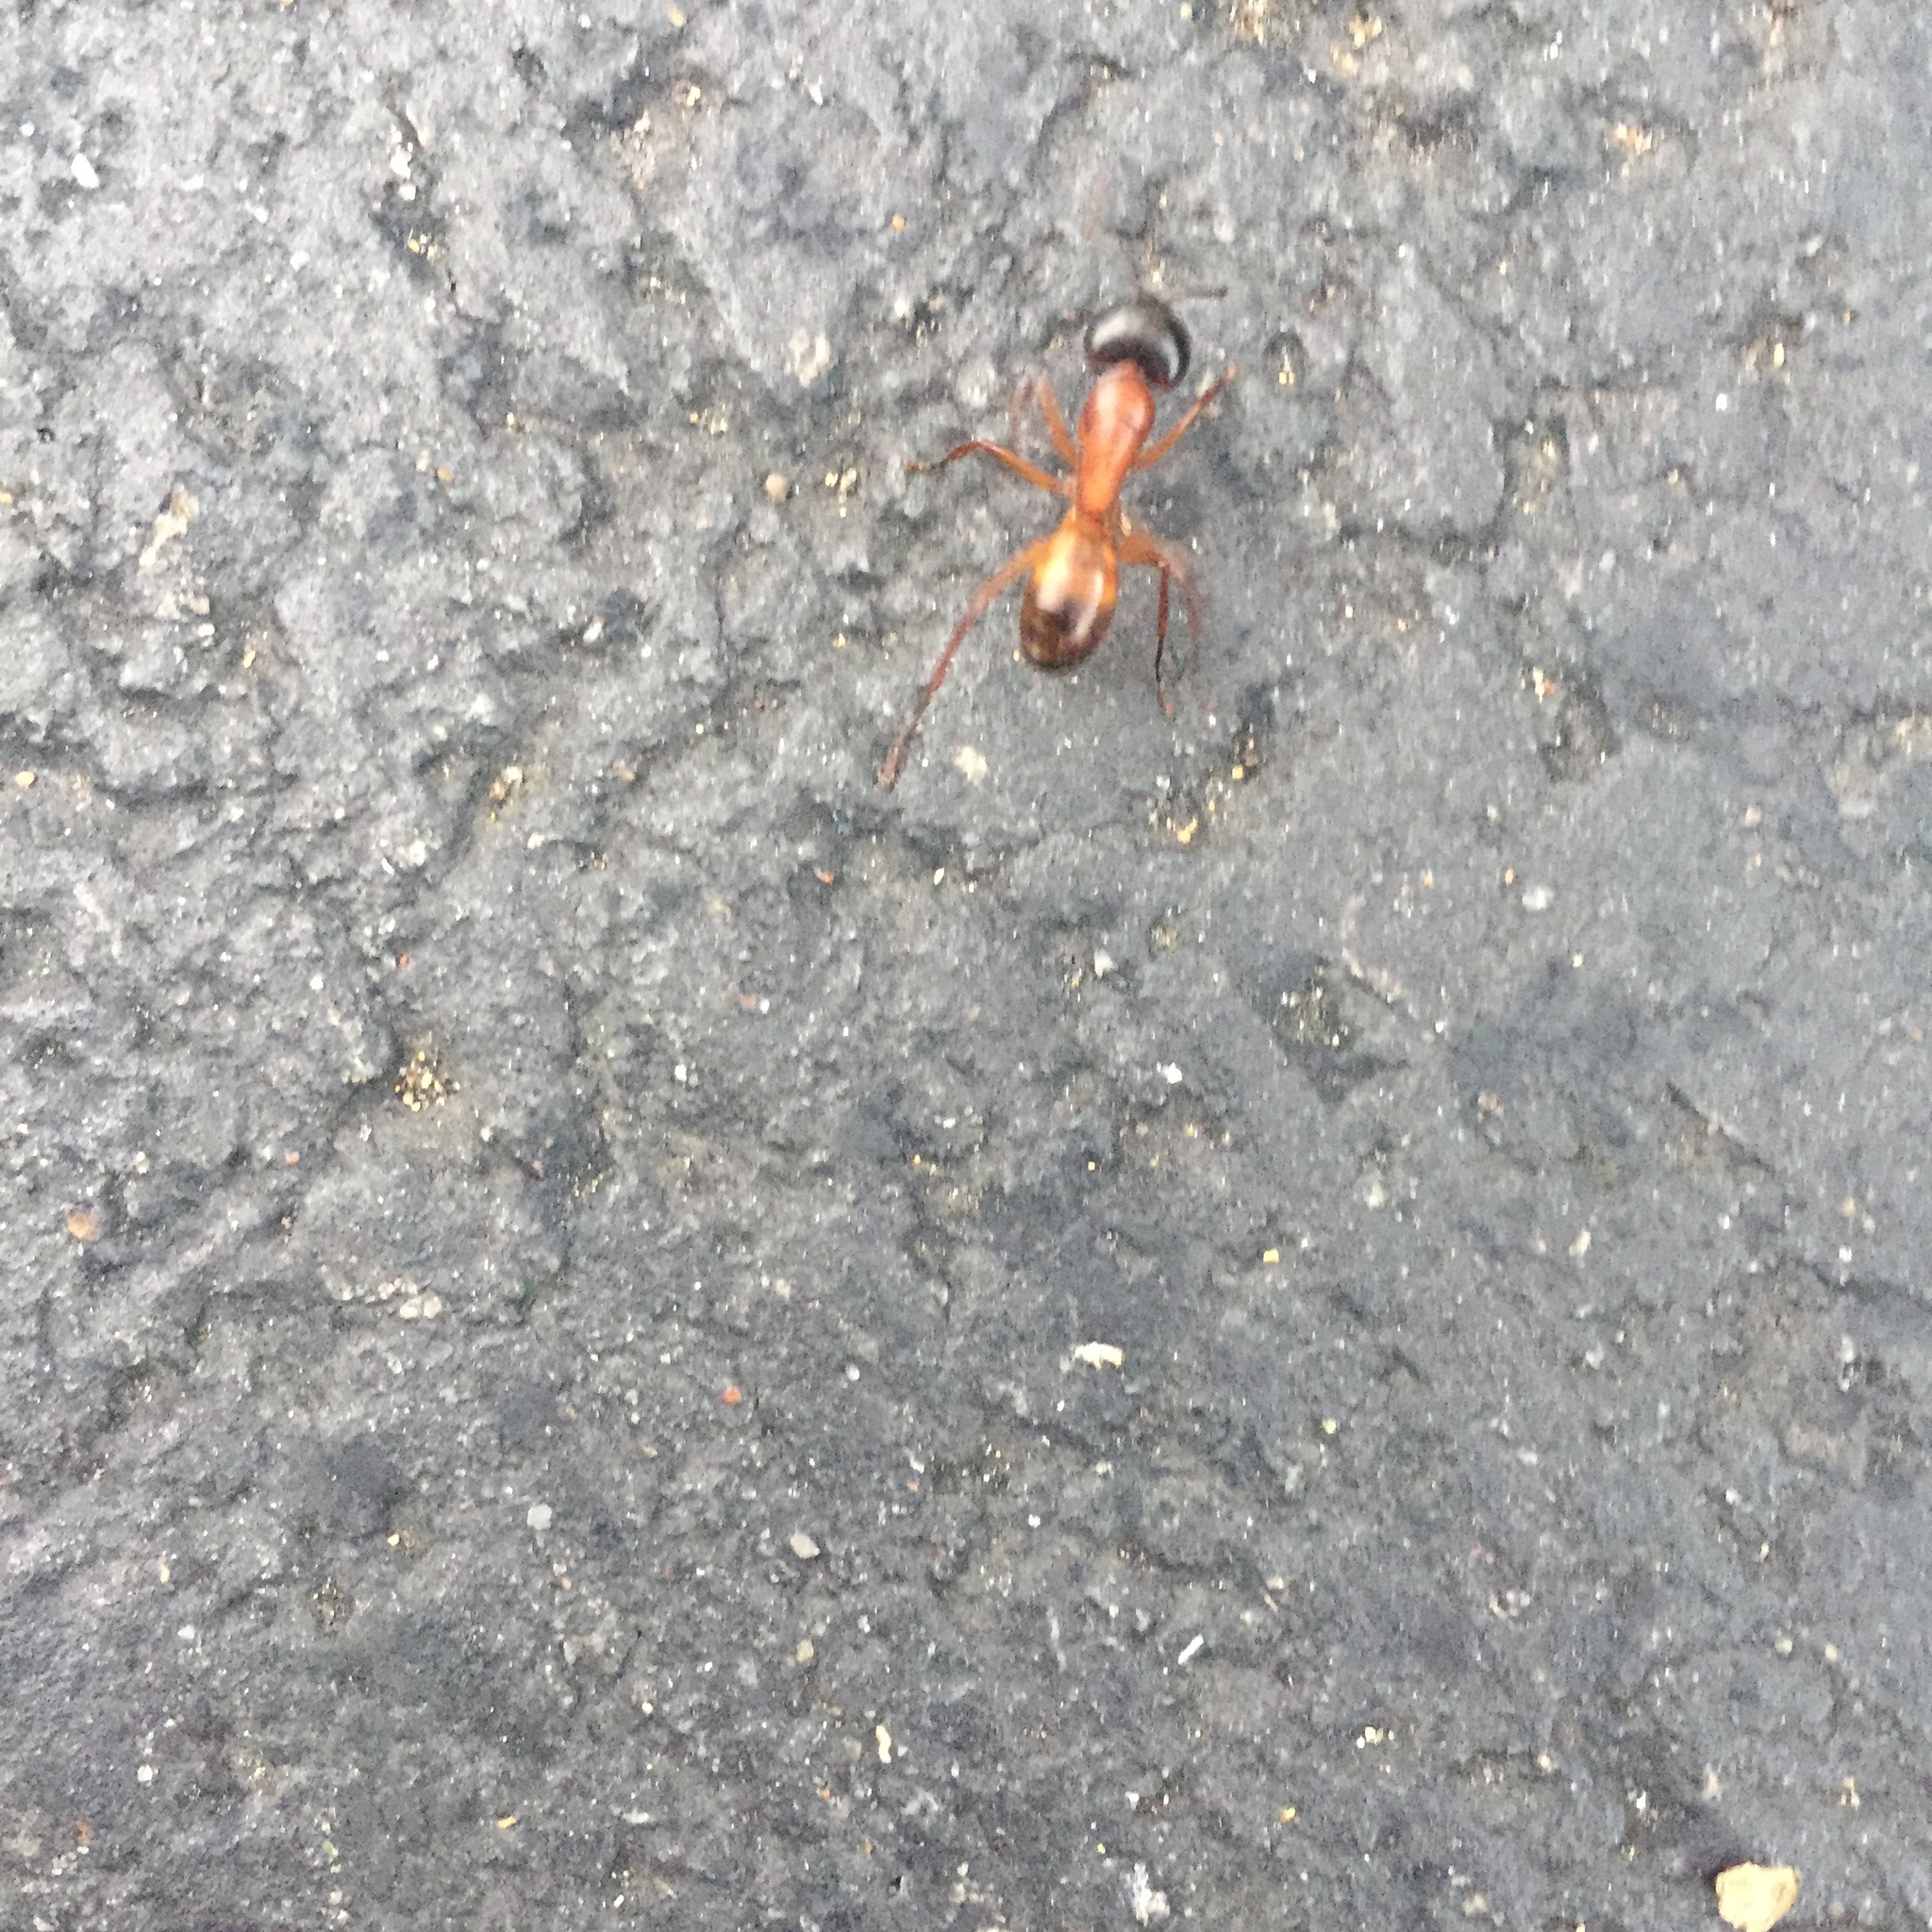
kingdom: Animalia
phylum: Arthropoda
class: Insecta
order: Hymenoptera
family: Formicidae
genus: Camponotus
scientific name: Camponotus vicinus
